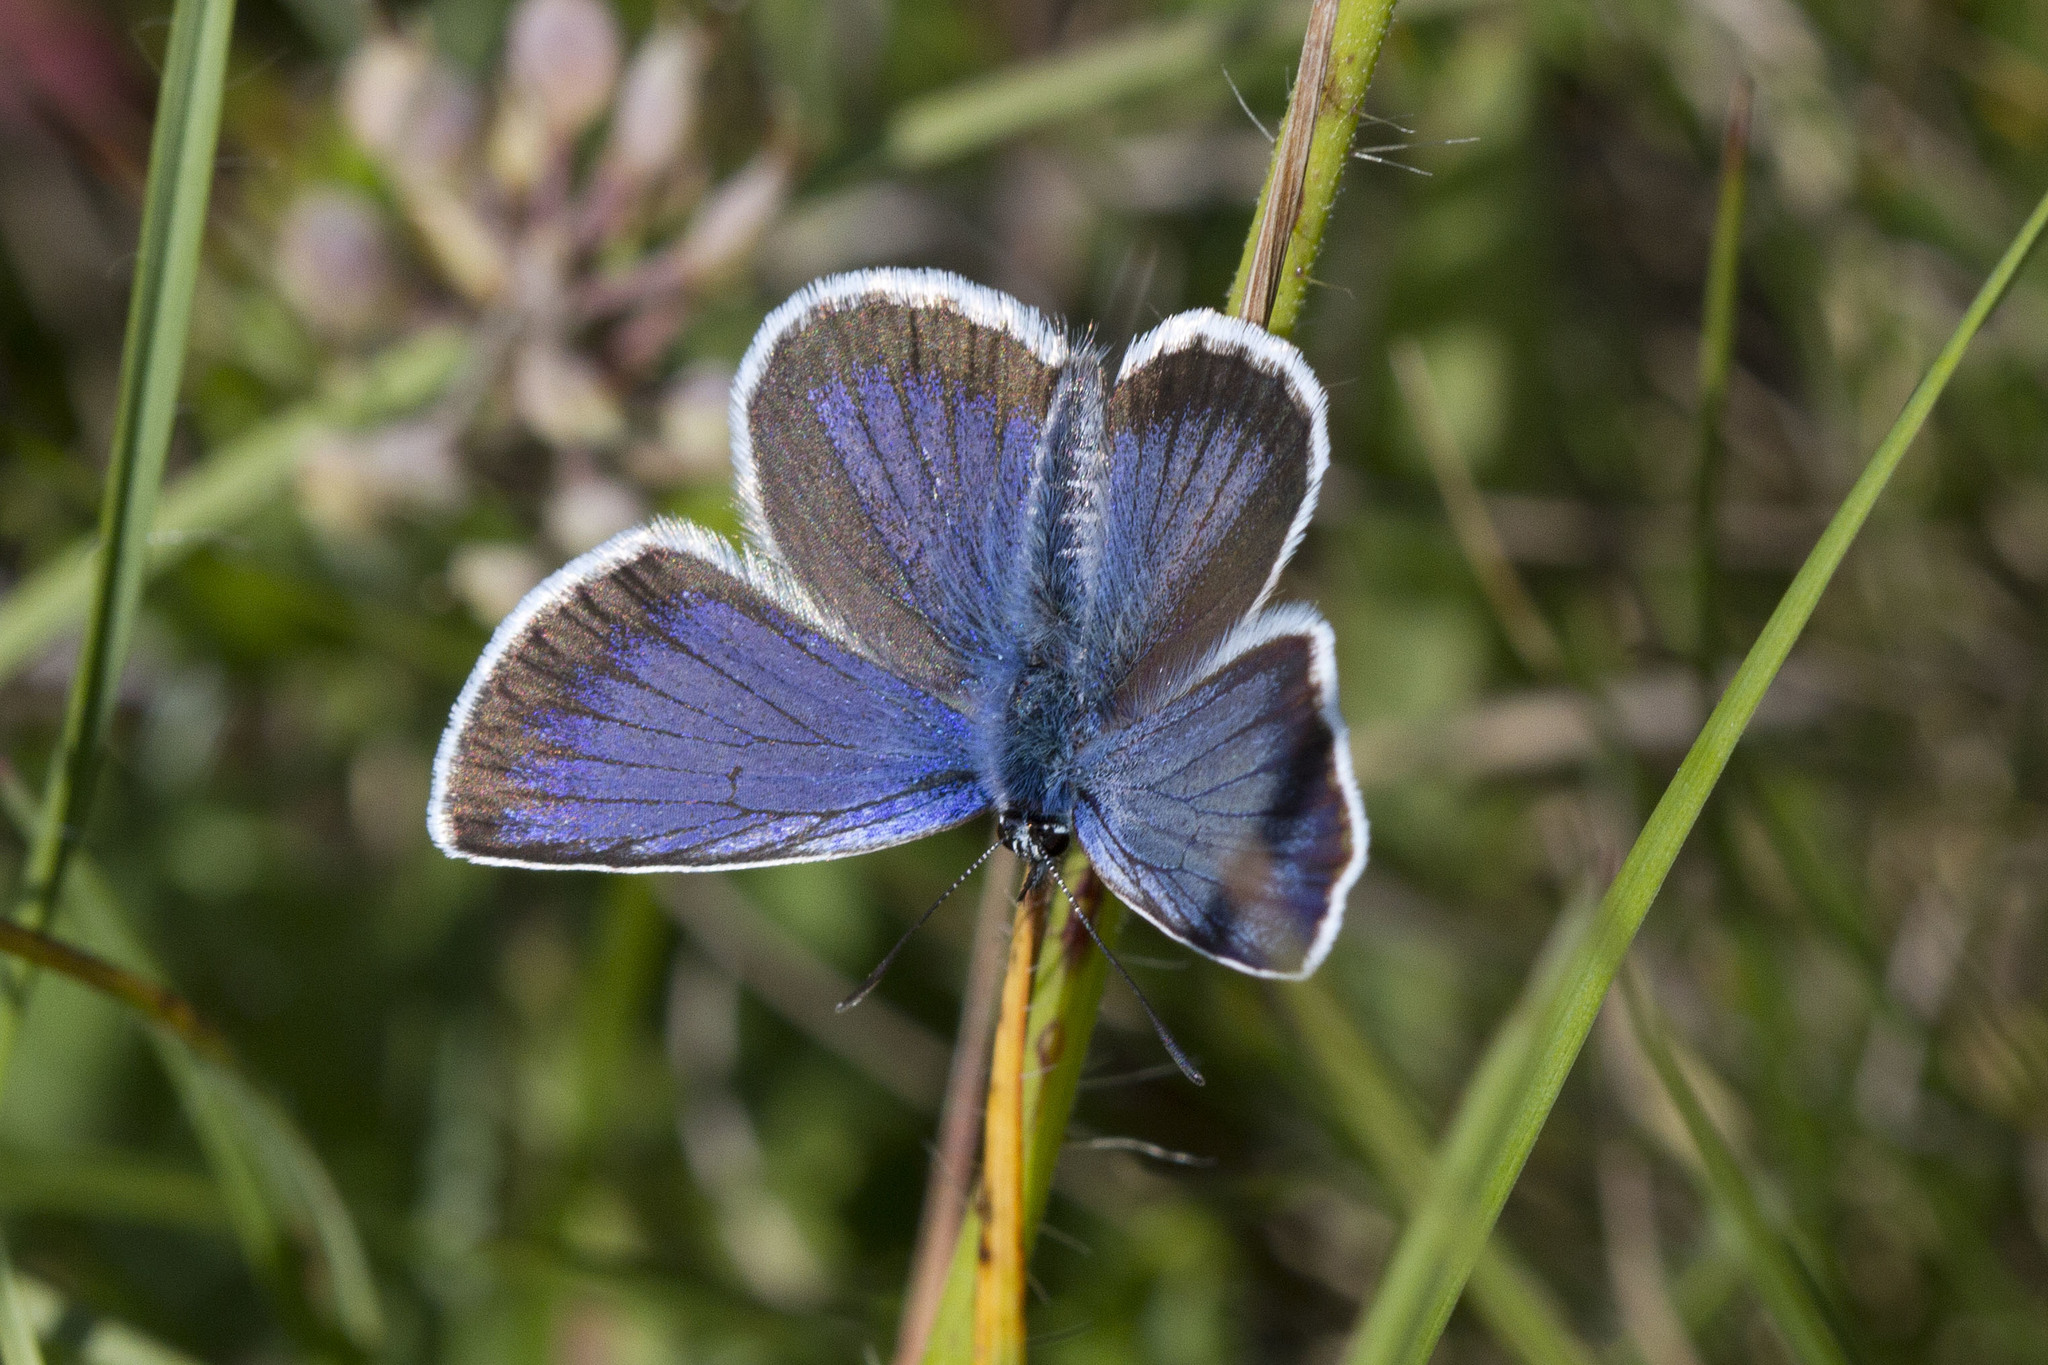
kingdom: Animalia
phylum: Arthropoda
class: Insecta
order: Lepidoptera
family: Lycaenidae
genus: Plebejus
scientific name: Plebejus argus
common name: Silver-studded blue
